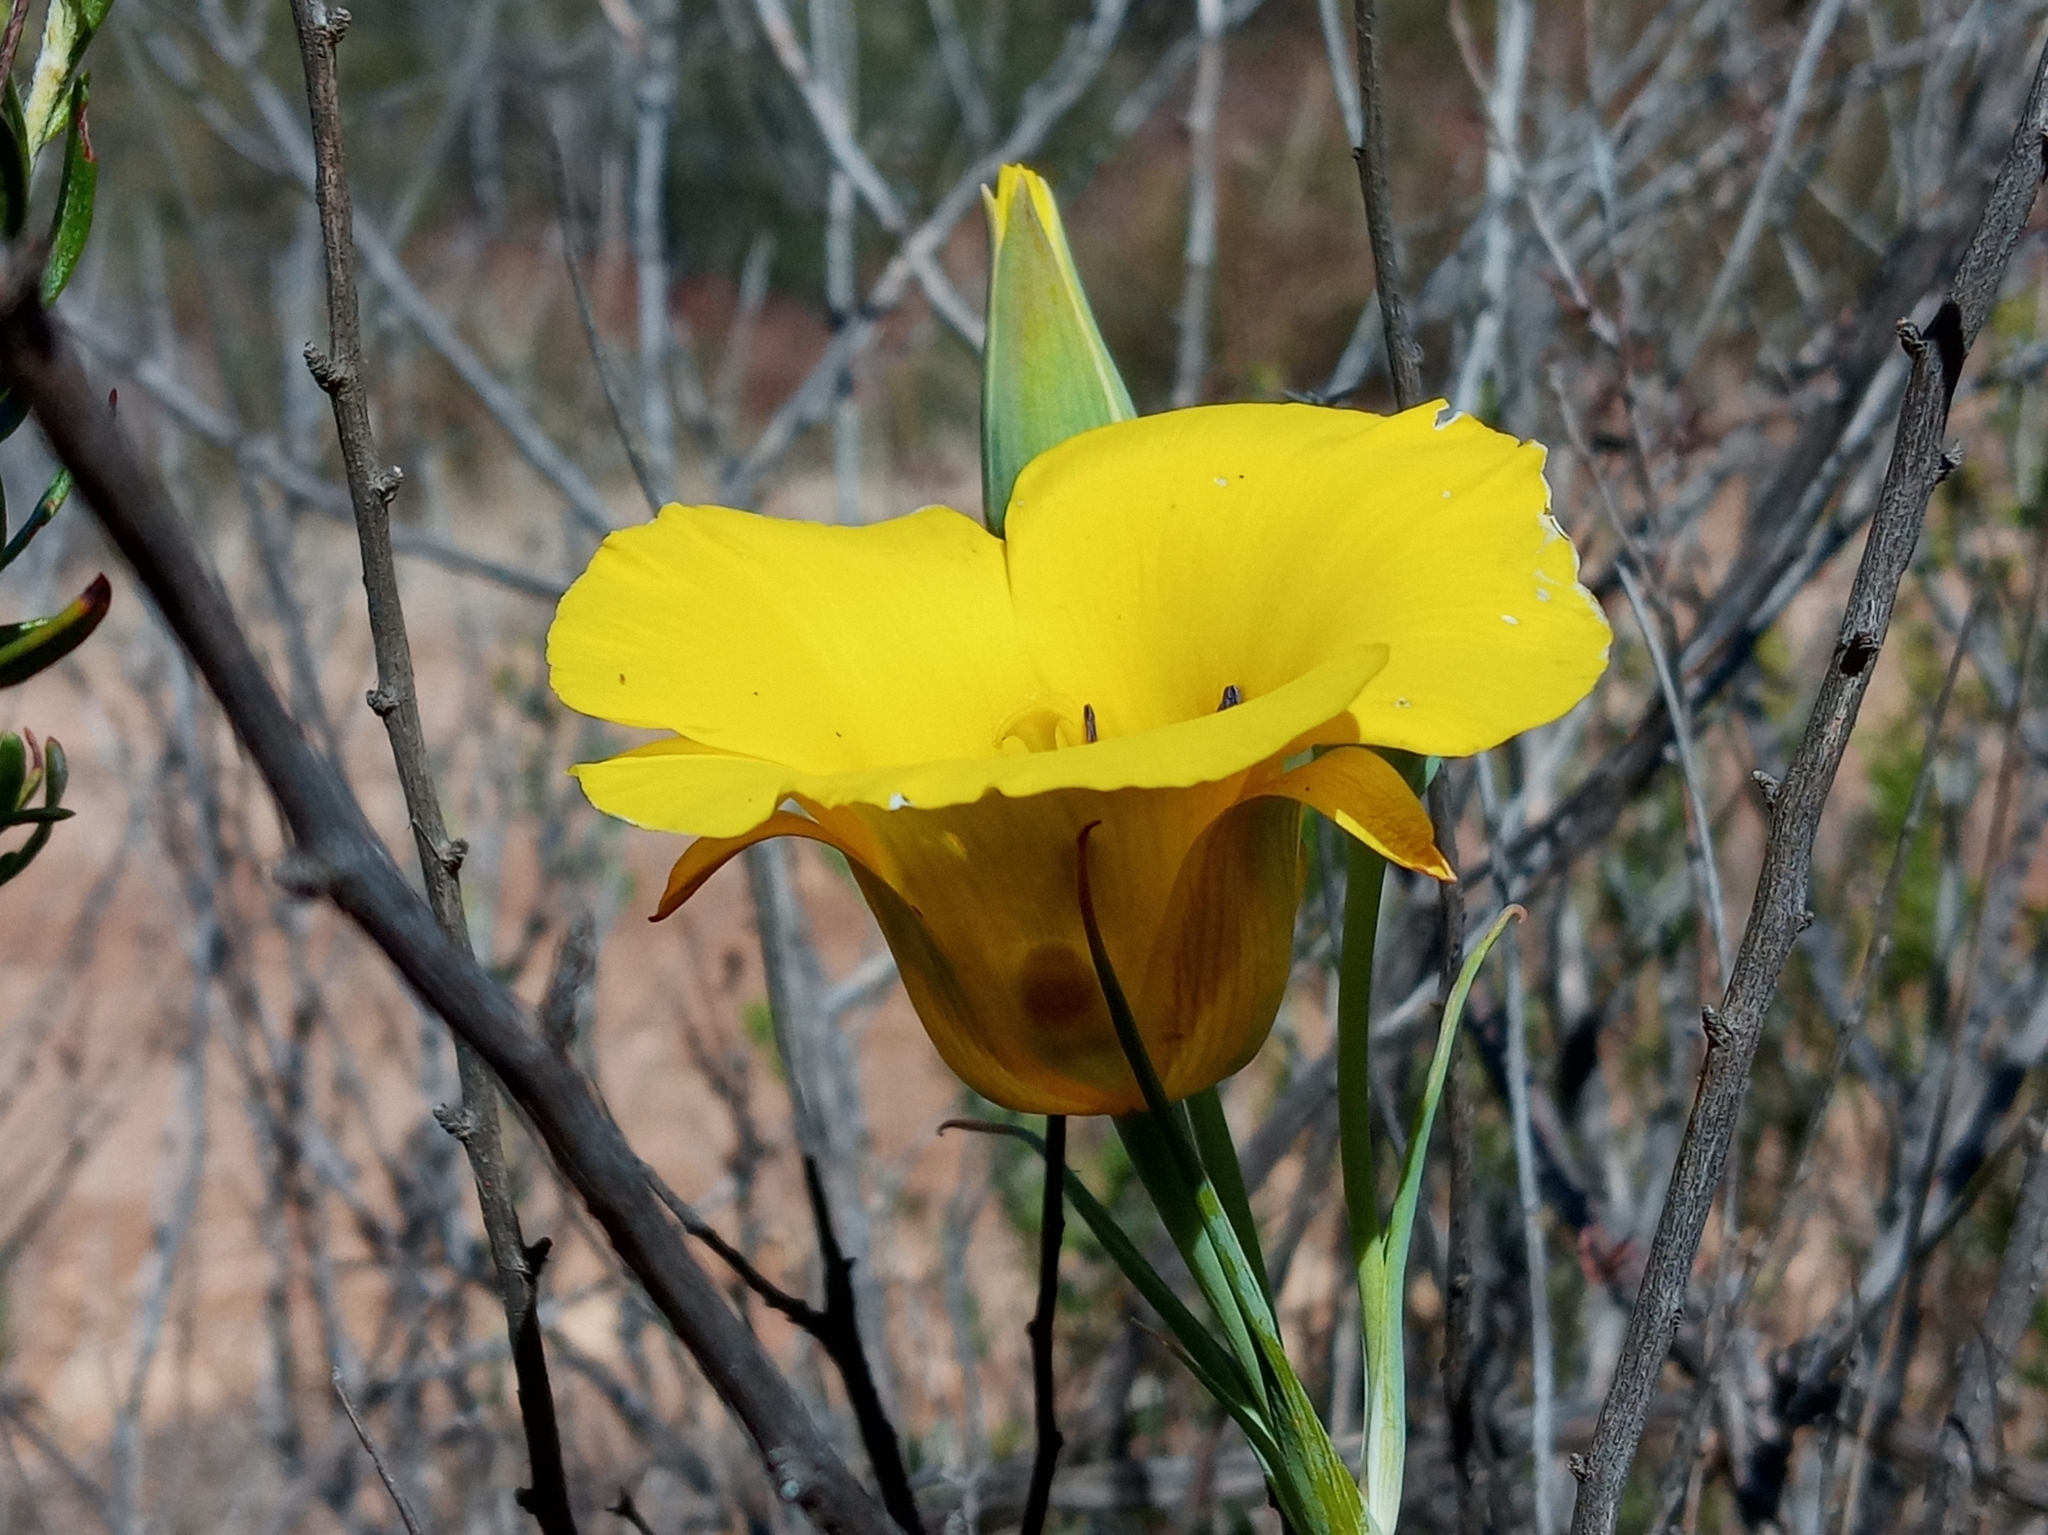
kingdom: Plantae
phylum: Tracheophyta
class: Liliopsida
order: Liliales
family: Liliaceae
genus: Calochortus
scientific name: Calochortus clavatus
